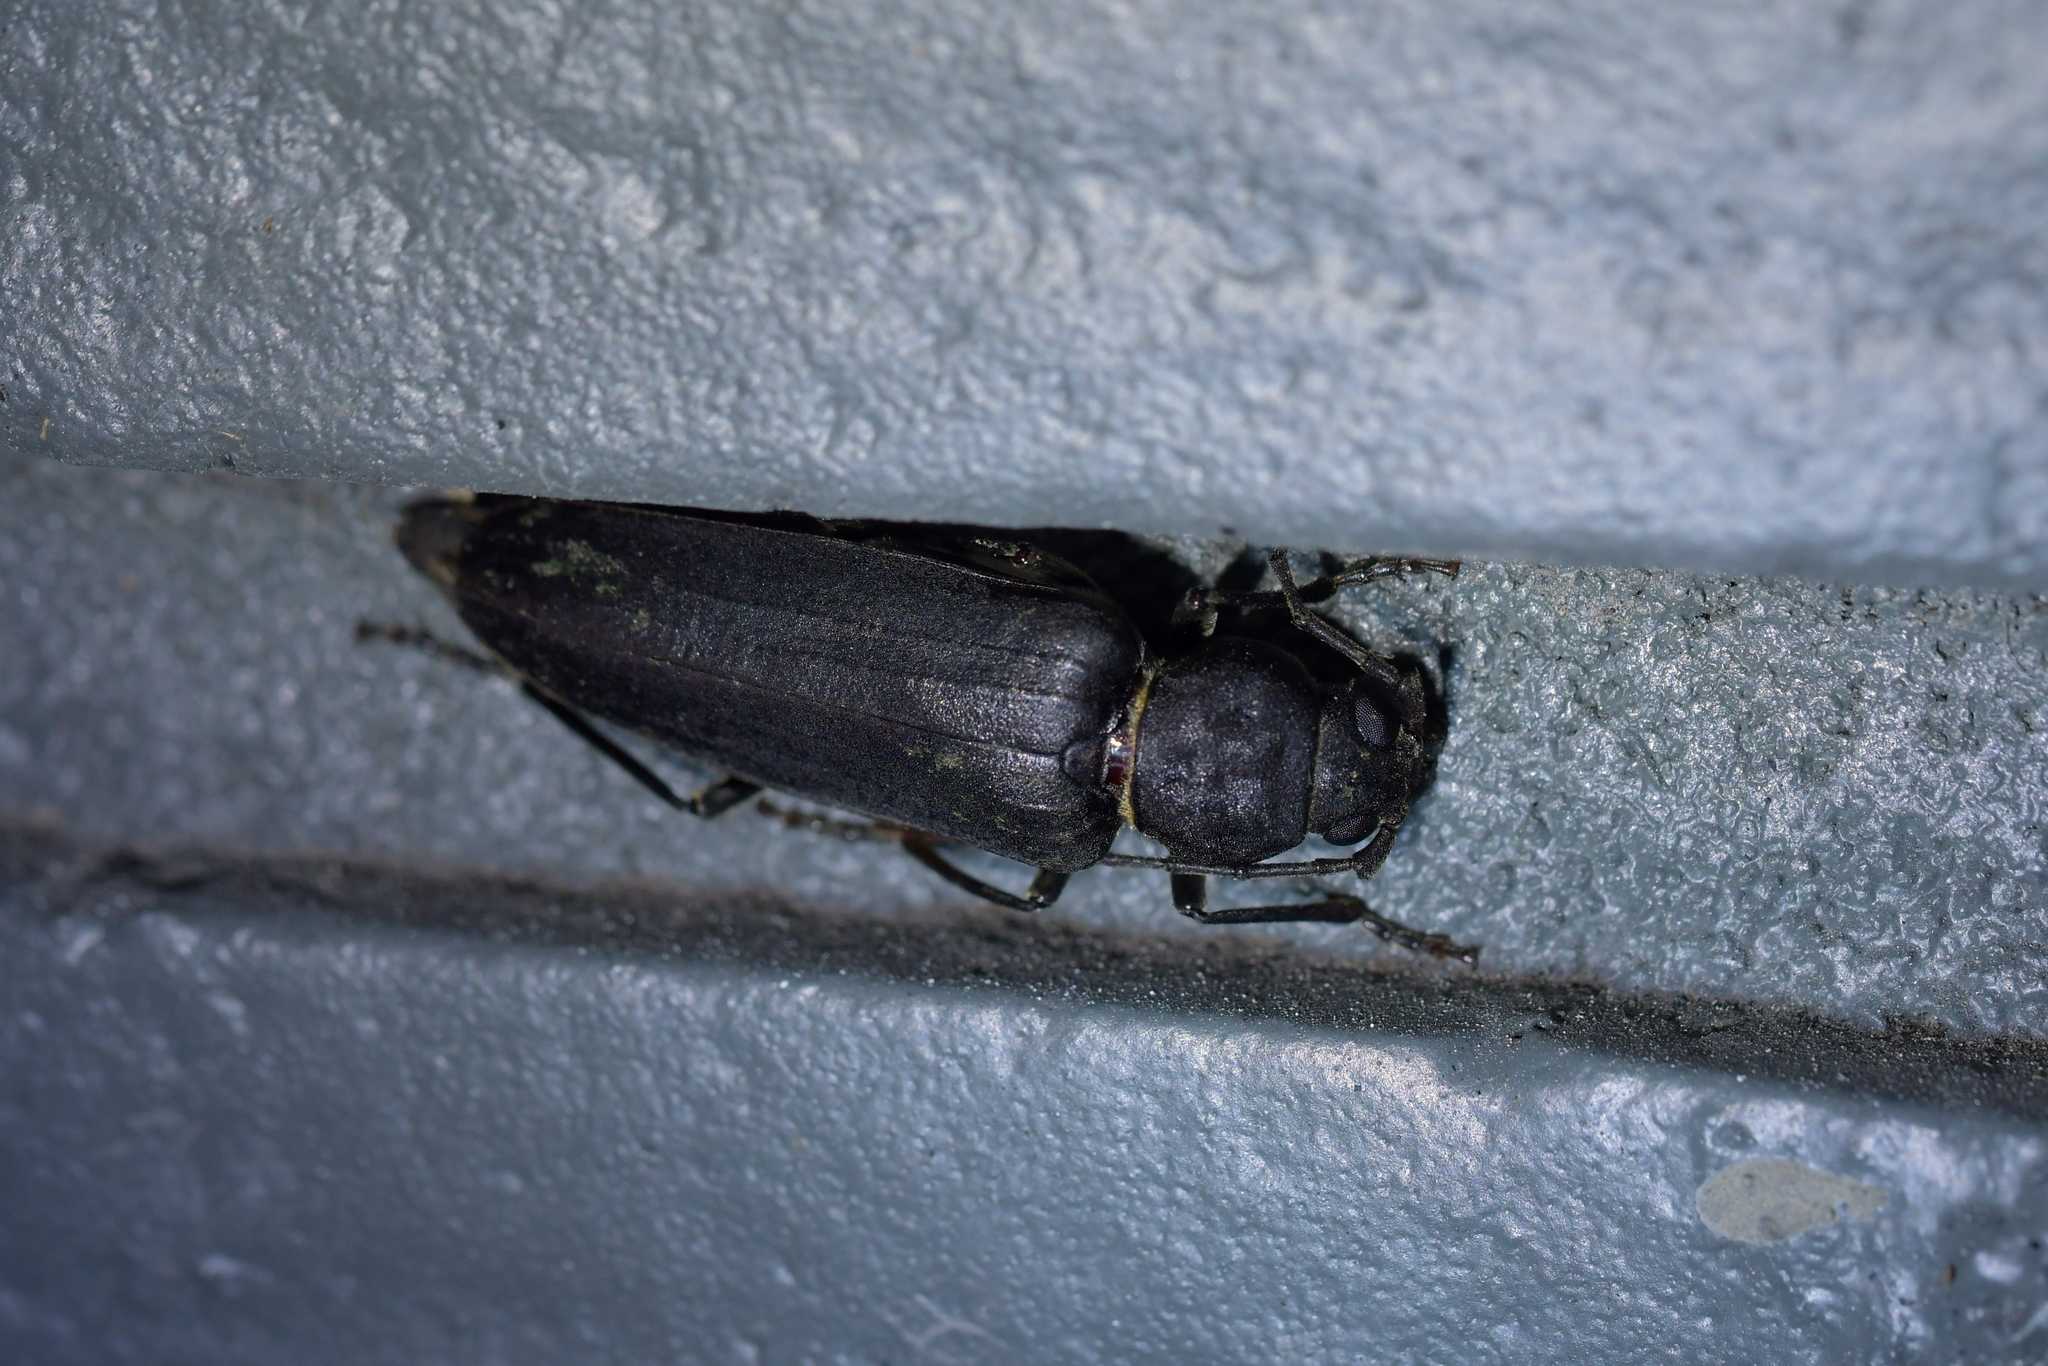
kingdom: Animalia
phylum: Arthropoda
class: Insecta
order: Coleoptera
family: Cerambycidae
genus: Arhopalus
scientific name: Arhopalus ferus
